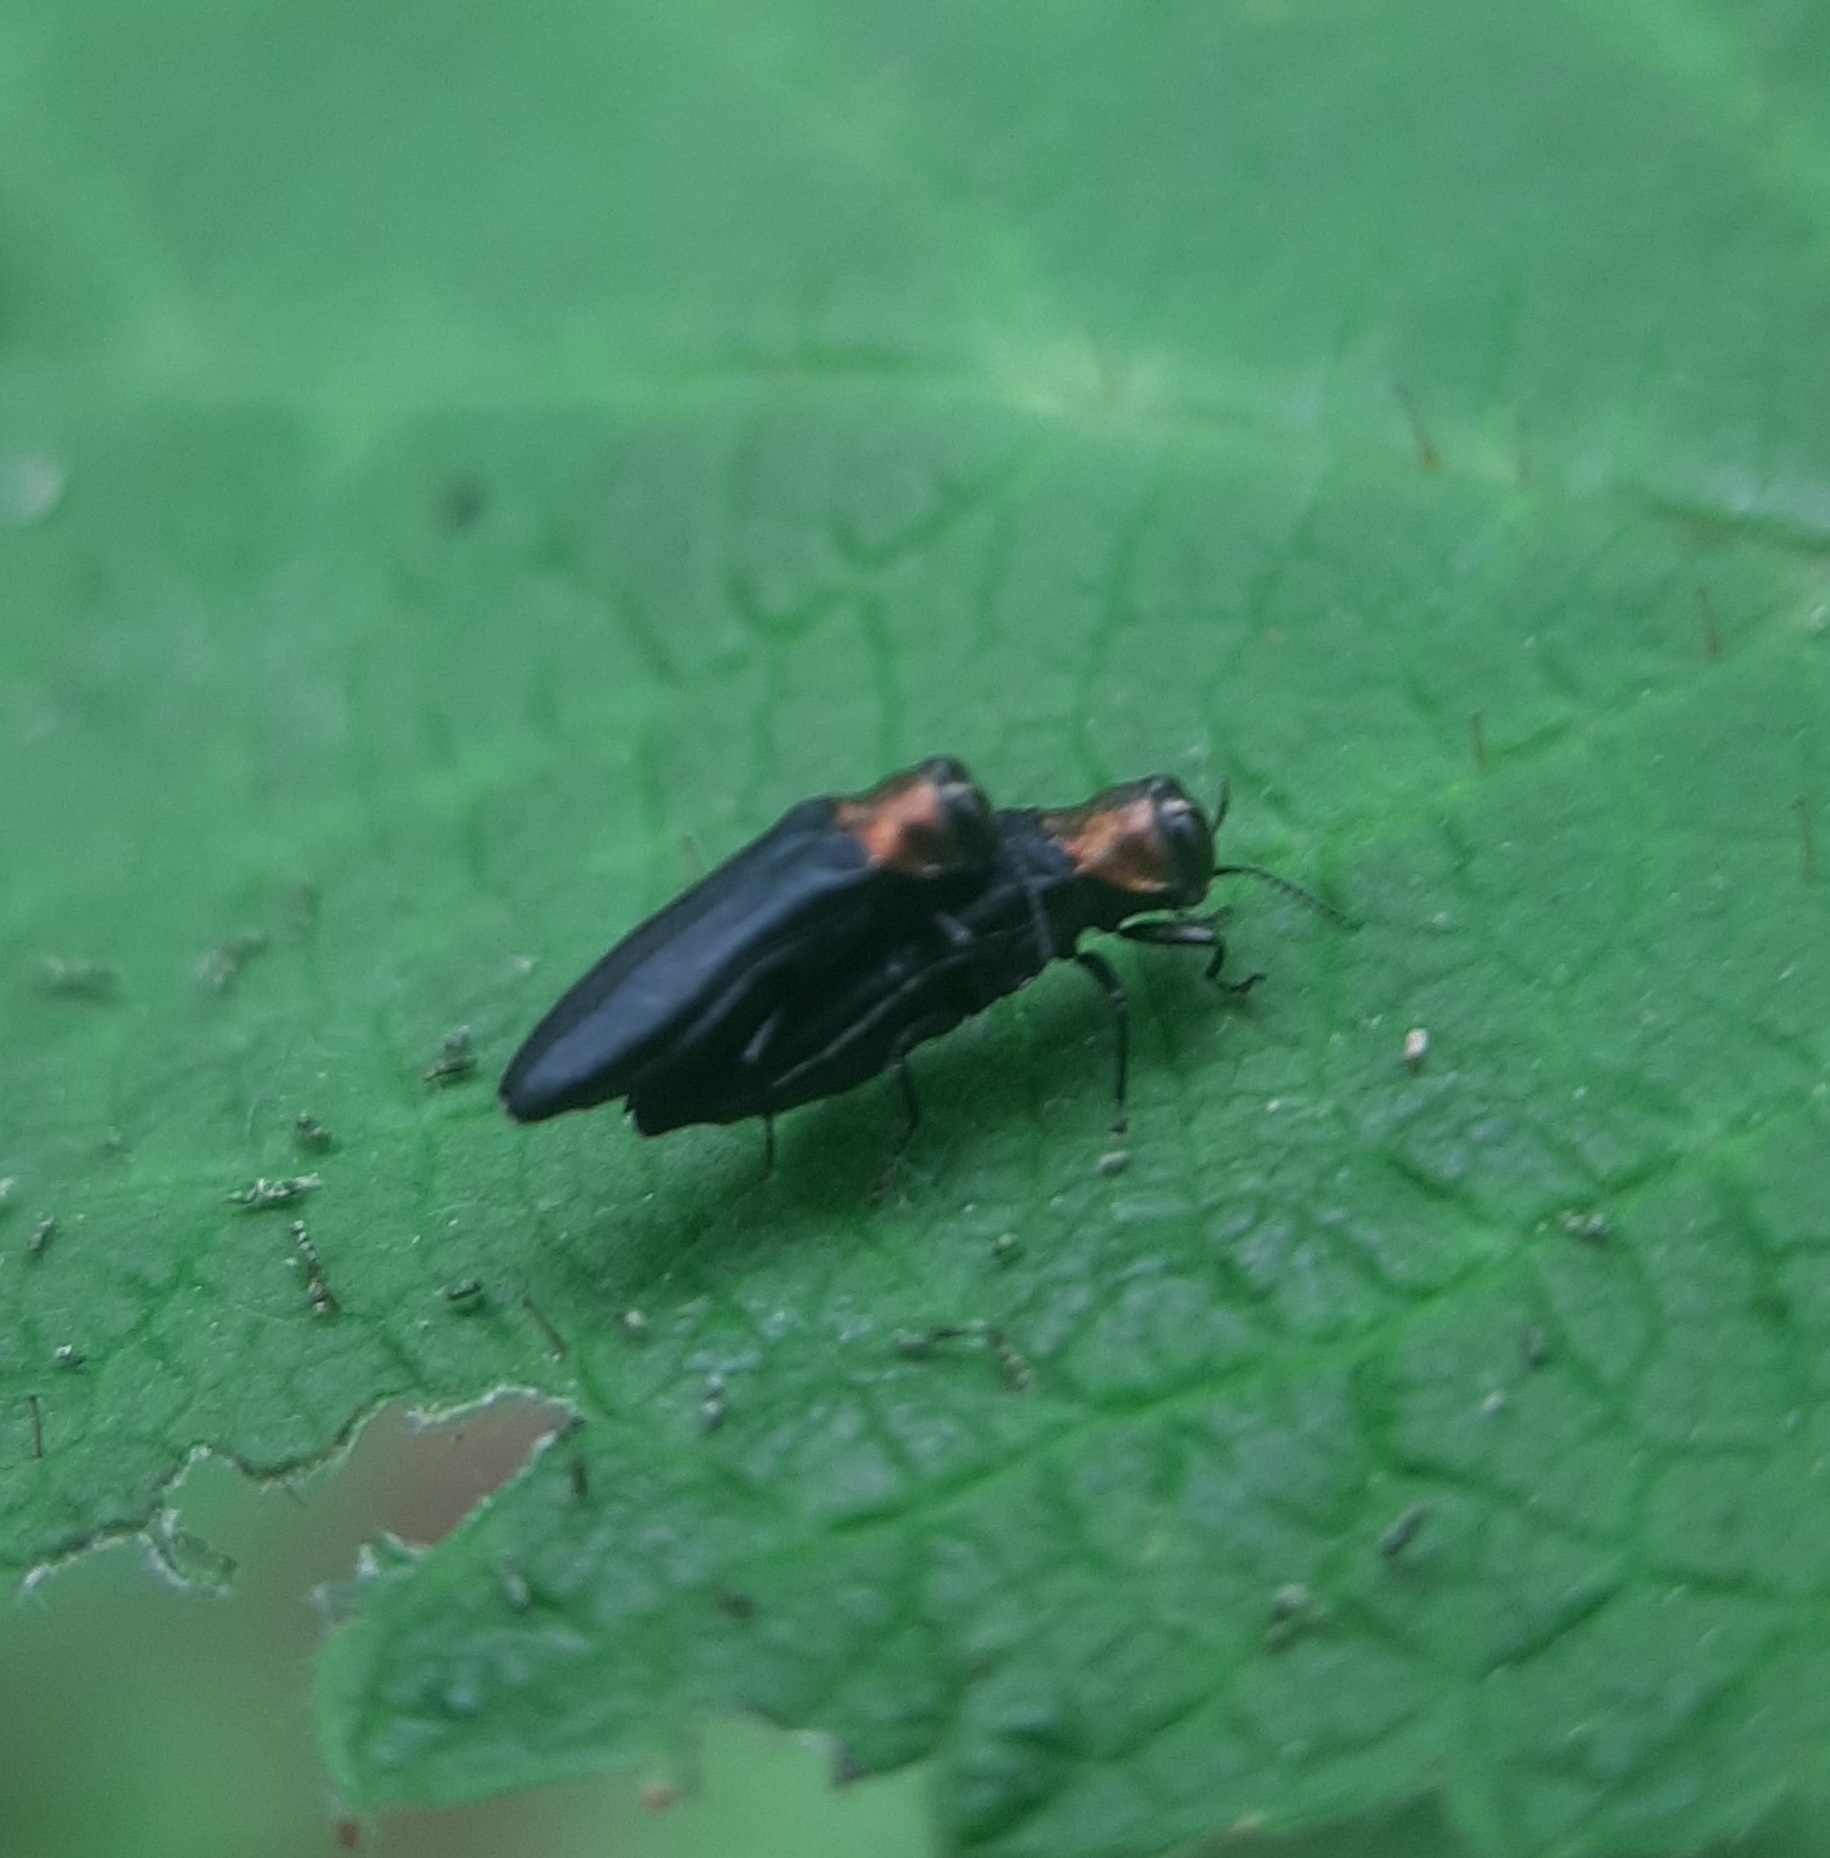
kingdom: Animalia
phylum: Arthropoda
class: Insecta
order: Coleoptera
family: Buprestidae
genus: Agrilus
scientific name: Agrilus ruficollis
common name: Red-necked cane borer beetle
